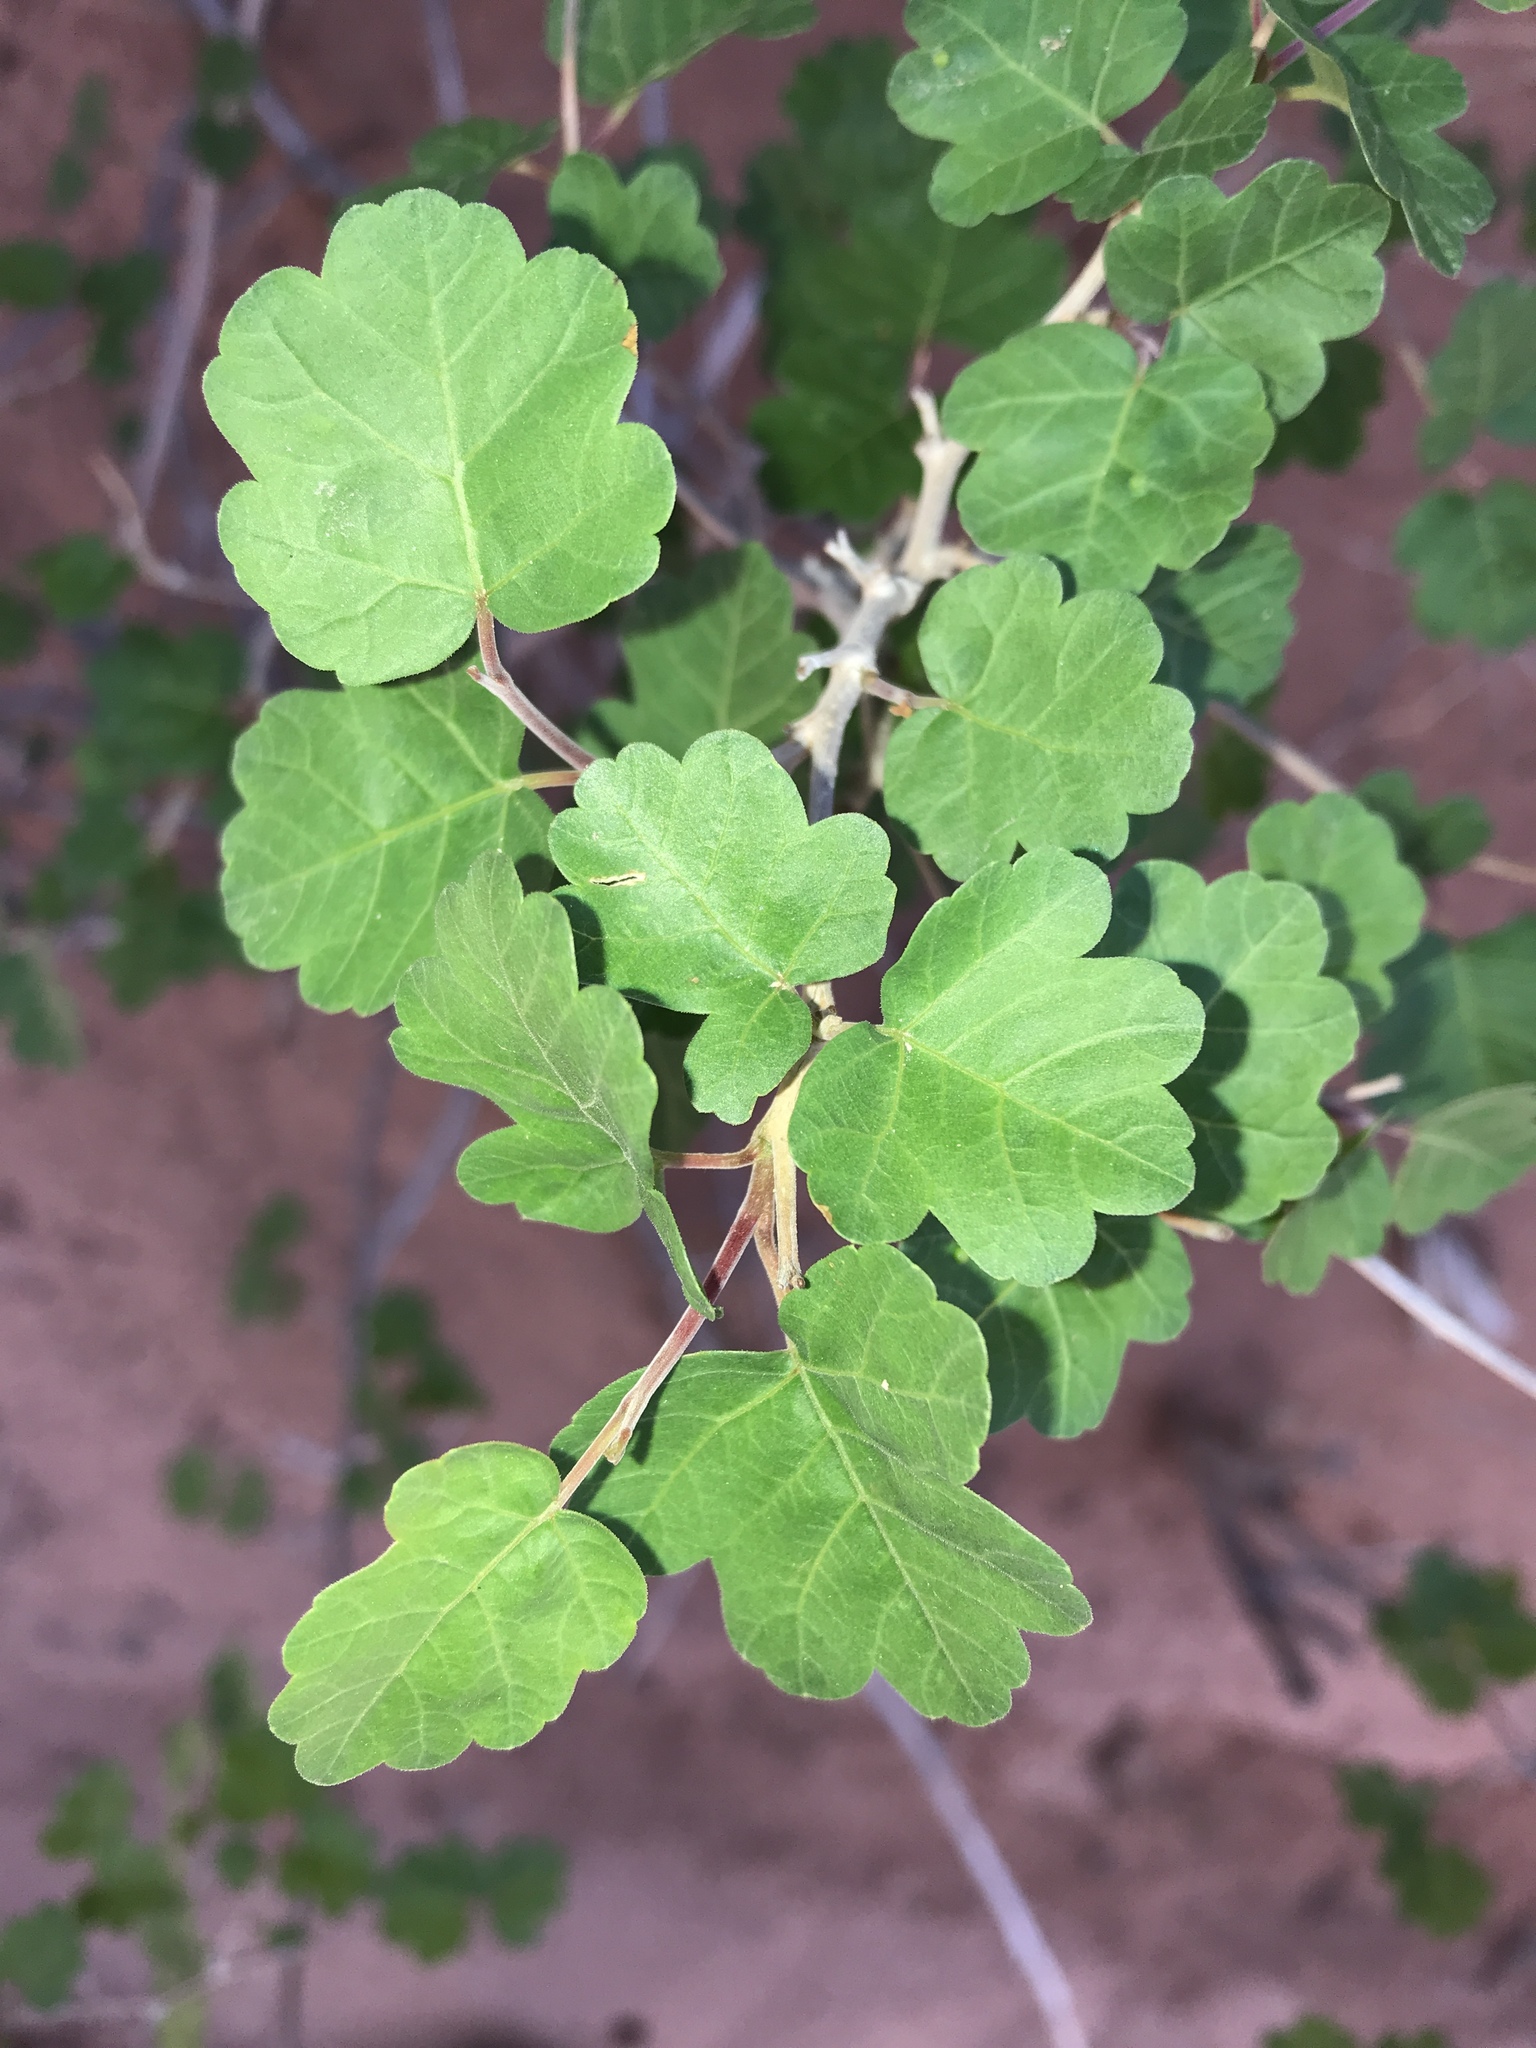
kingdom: Plantae
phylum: Tracheophyta
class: Magnoliopsida
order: Sapindales
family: Anacardiaceae
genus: Rhus
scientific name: Rhus aromatica
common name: Aromatic sumac
